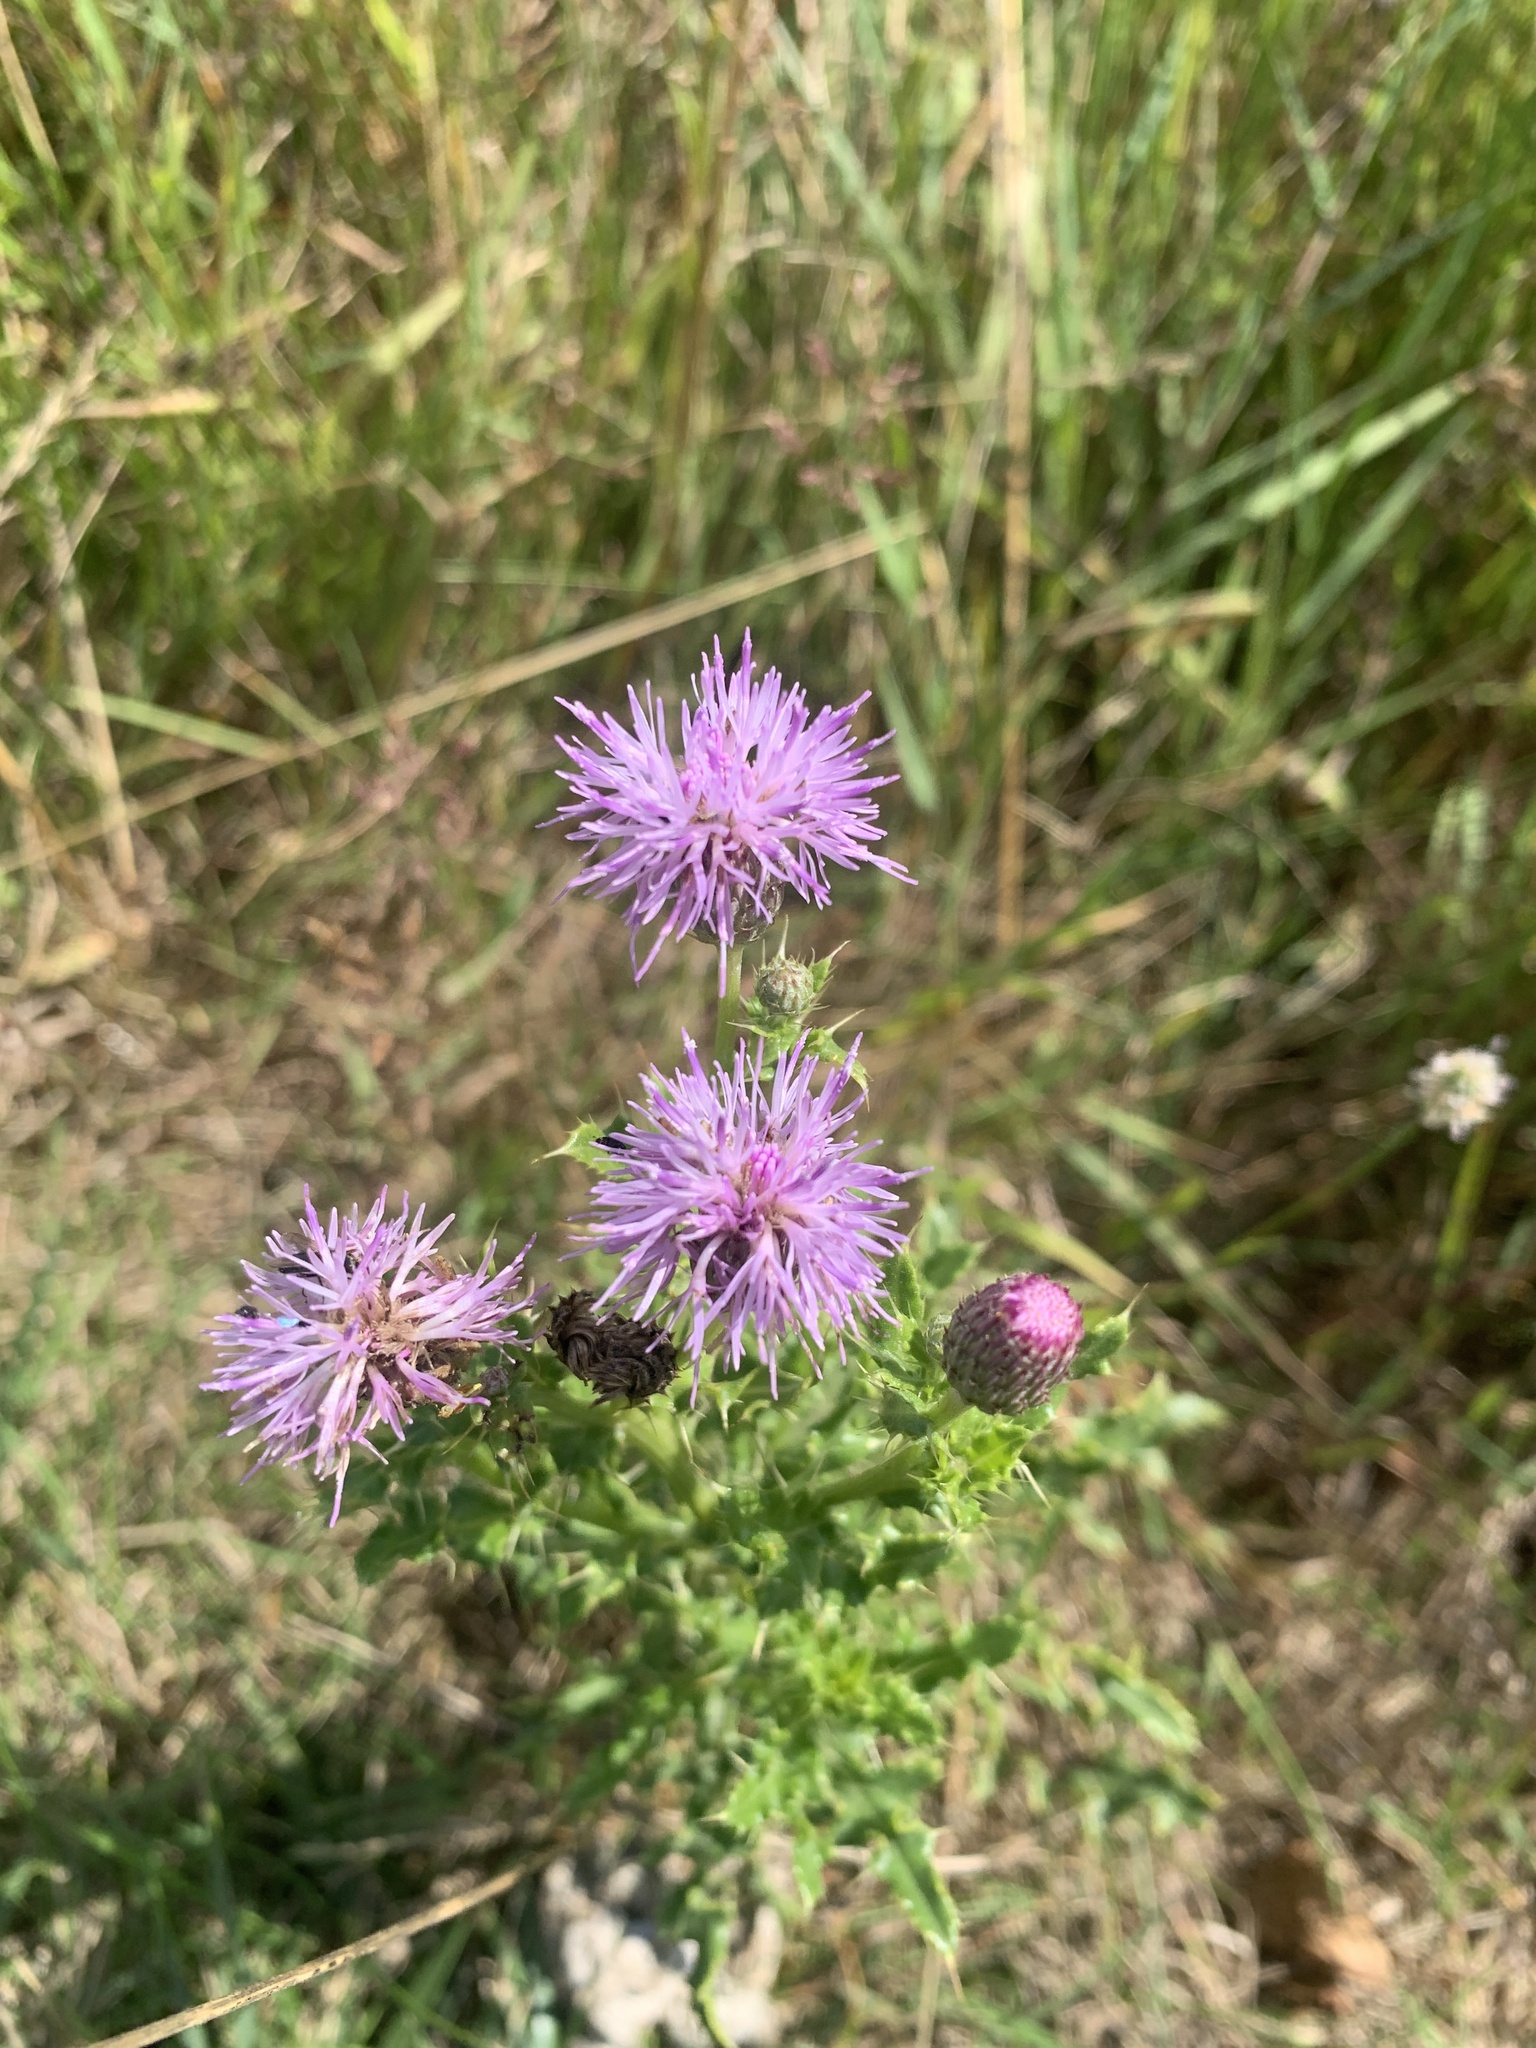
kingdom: Plantae
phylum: Tracheophyta
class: Magnoliopsida
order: Asterales
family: Asteraceae
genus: Cirsium
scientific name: Cirsium arvense
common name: Creeping thistle
